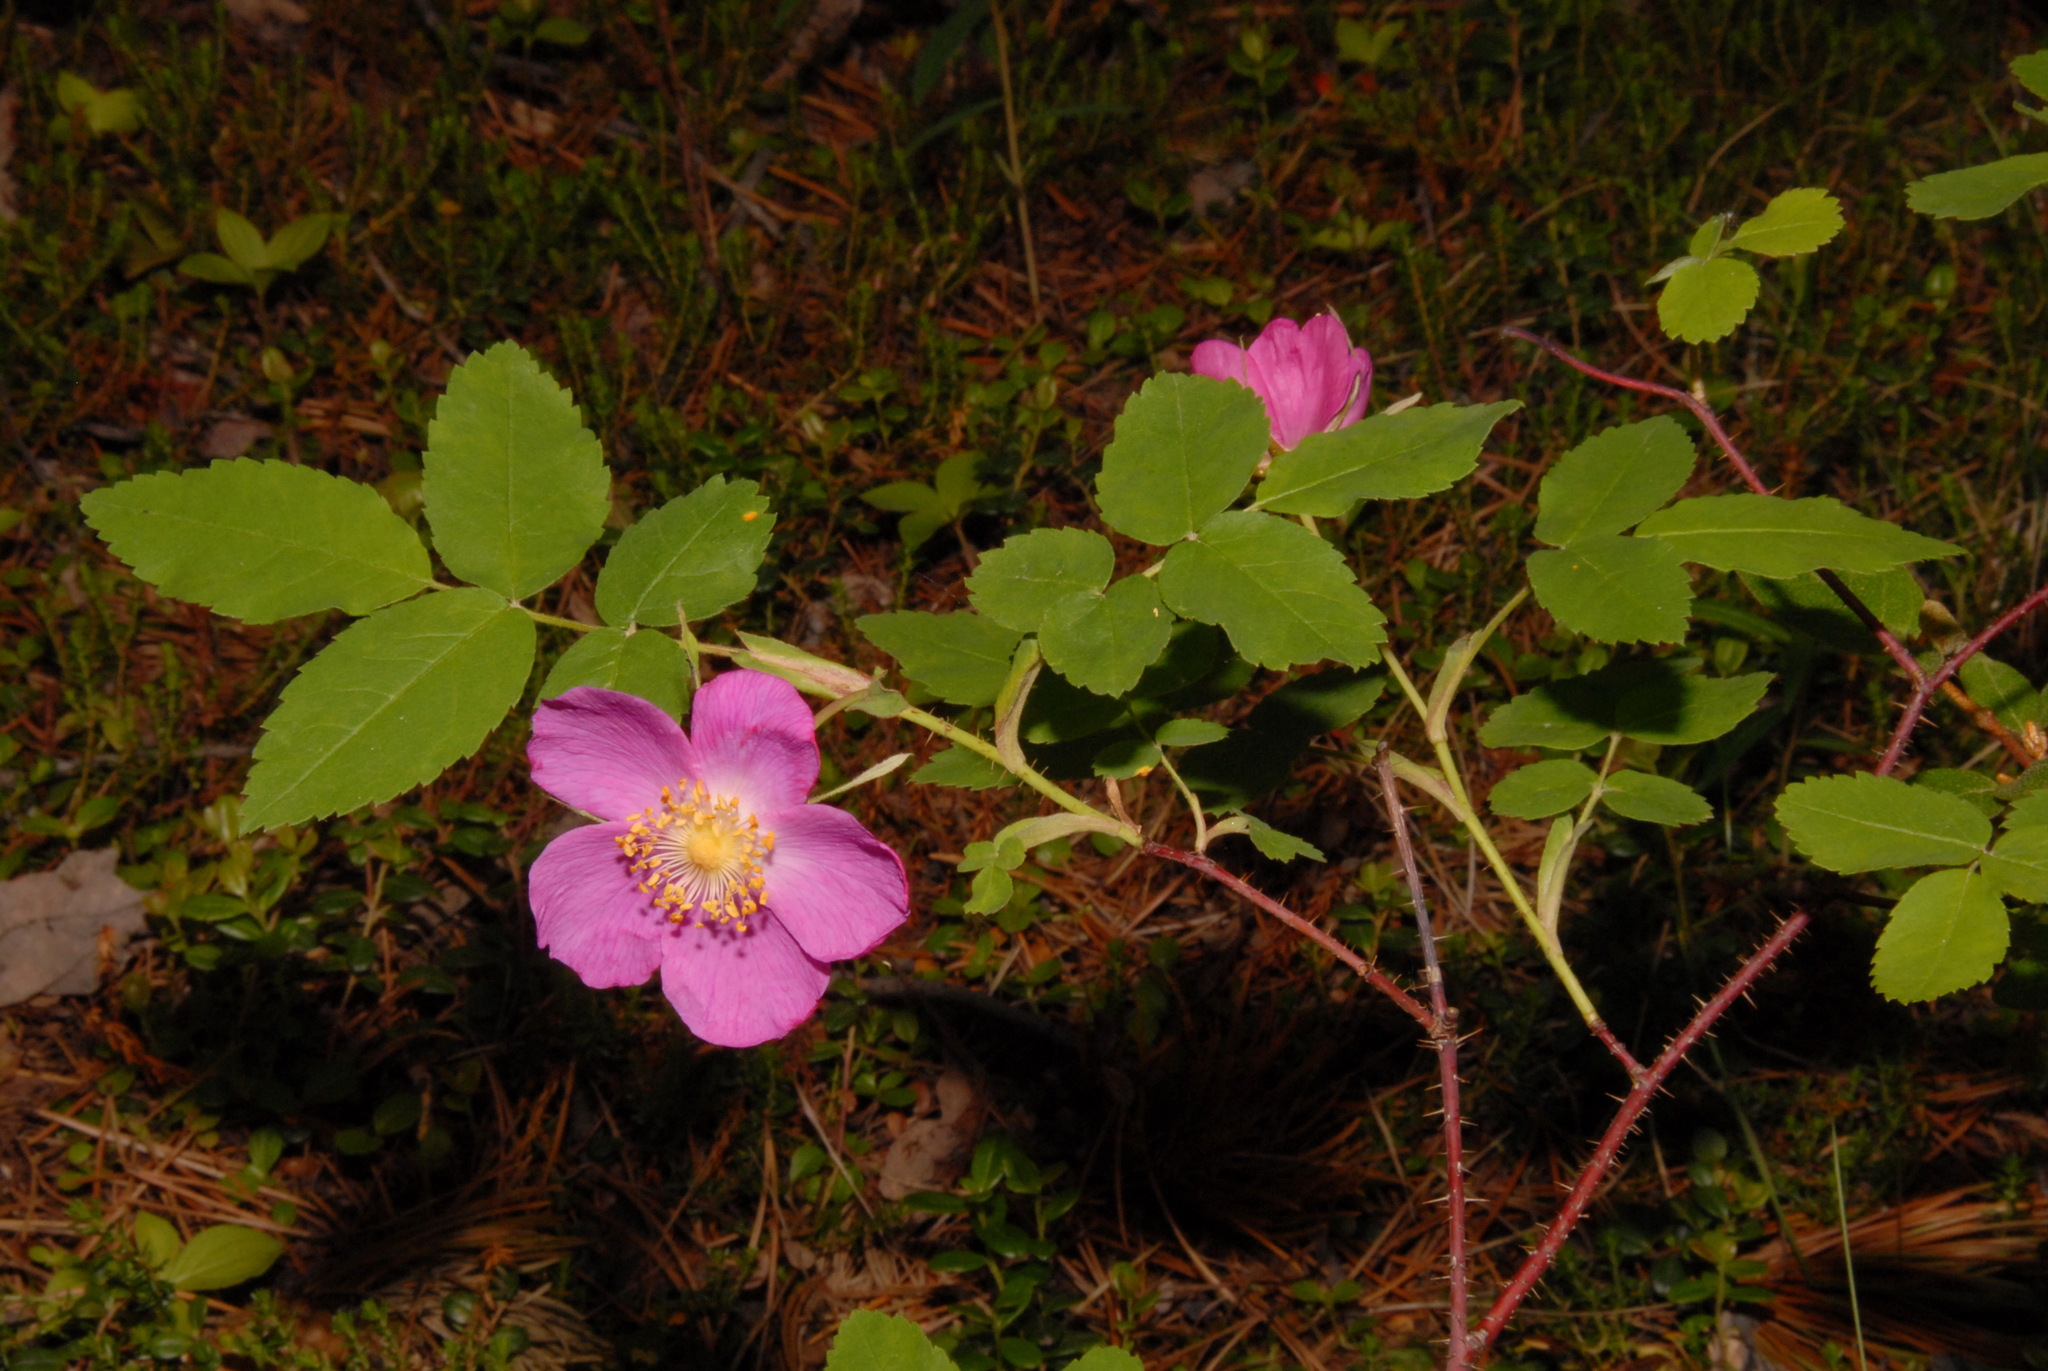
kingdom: Plantae
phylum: Tracheophyta
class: Magnoliopsida
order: Rosales
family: Rosaceae
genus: Rosa
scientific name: Rosa acicularis
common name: Prickly rose
